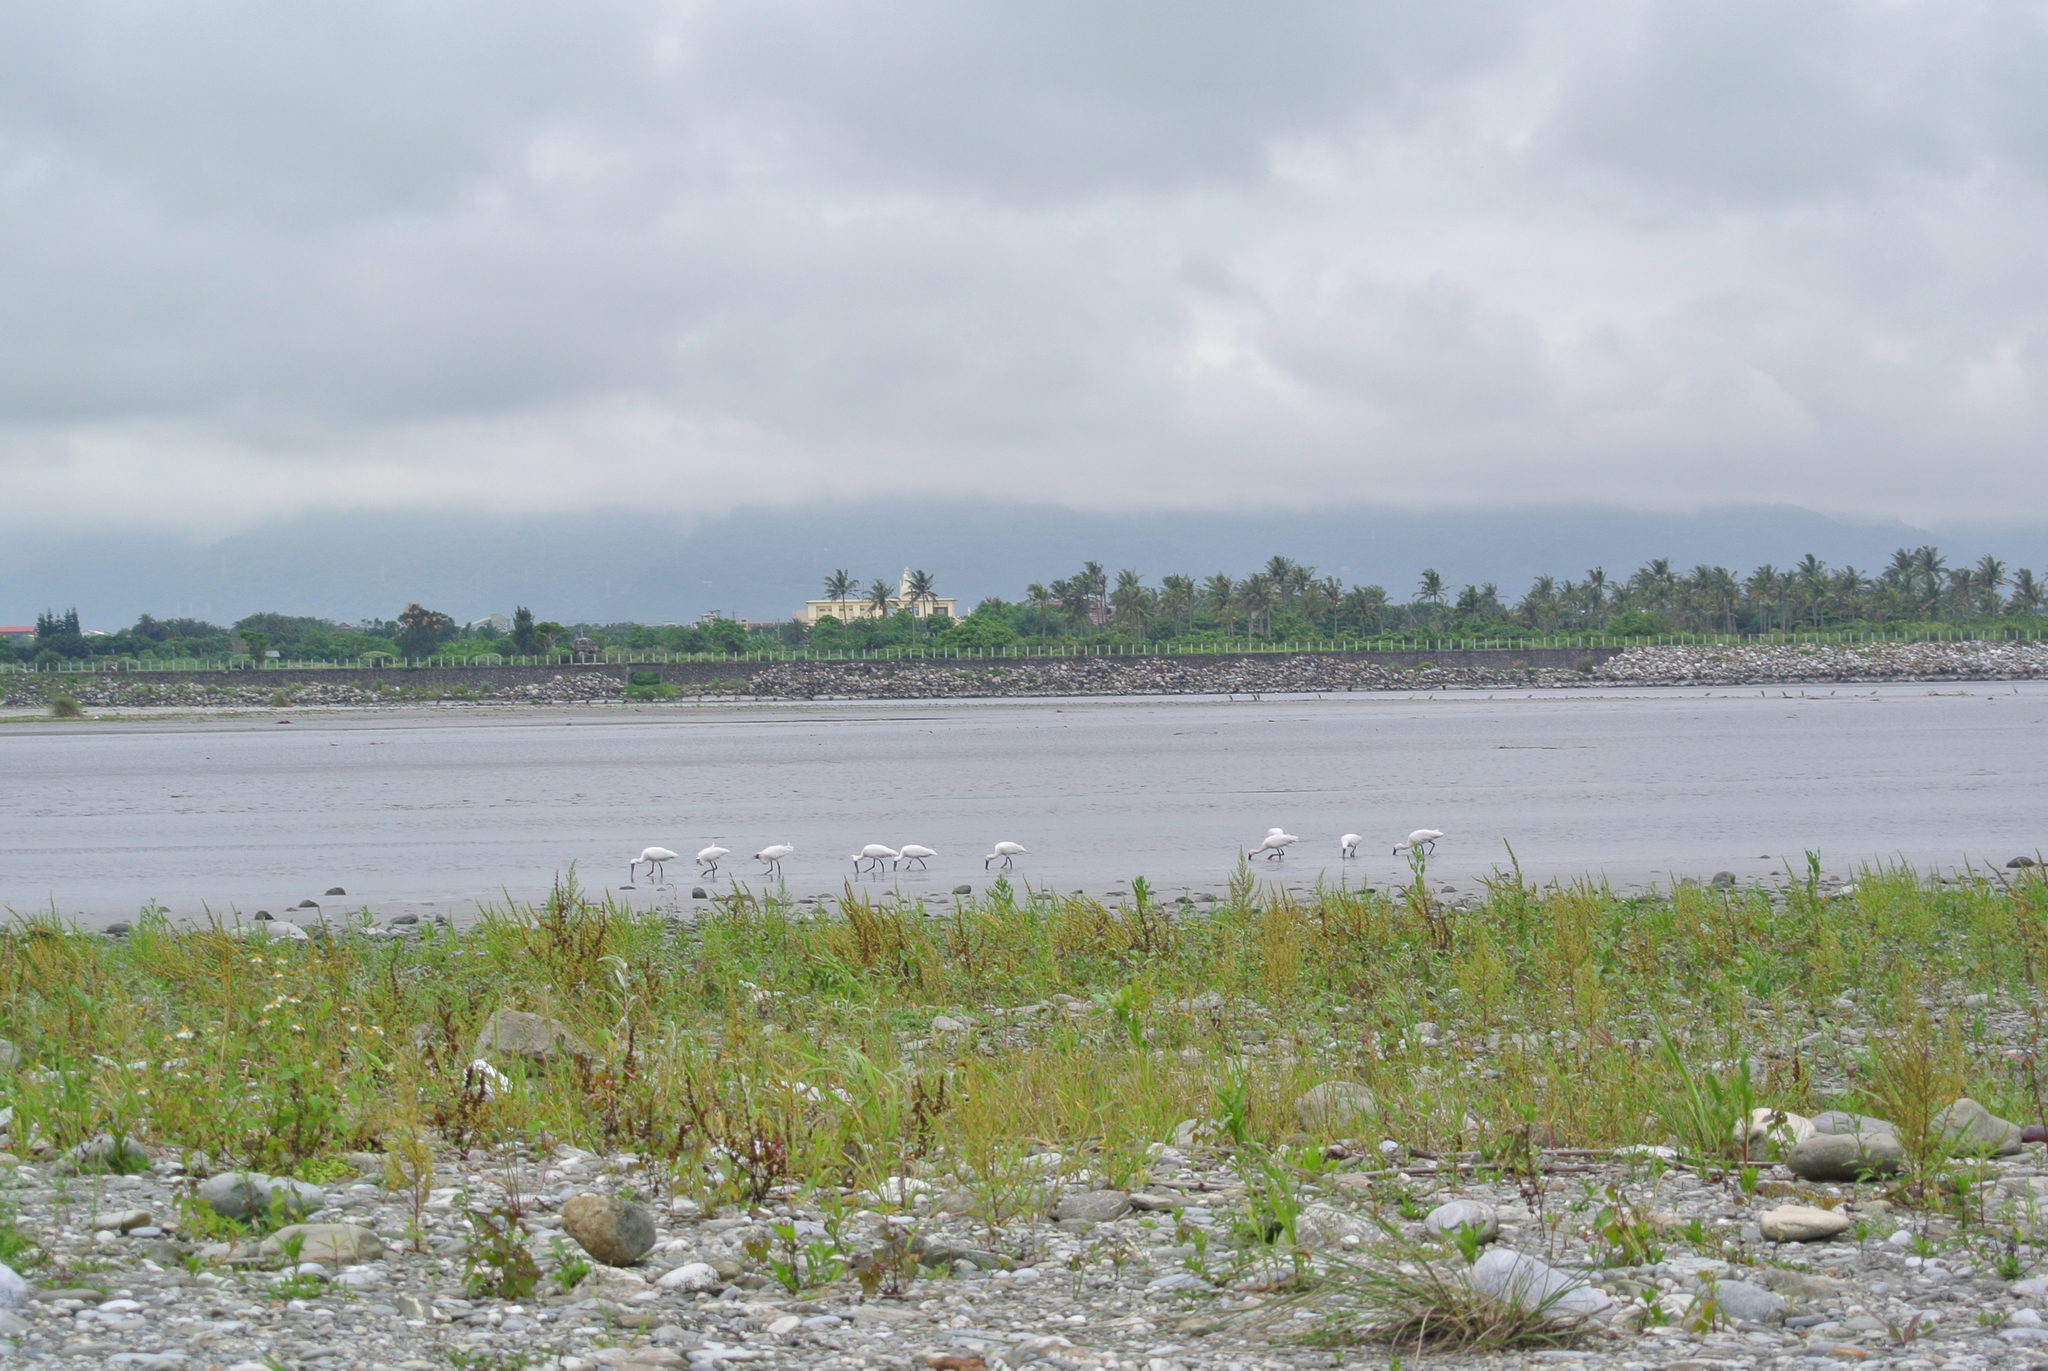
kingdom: Animalia
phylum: Chordata
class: Aves
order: Pelecaniformes
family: Threskiornithidae
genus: Platalea
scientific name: Platalea minor
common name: Black-faced spoonbill
